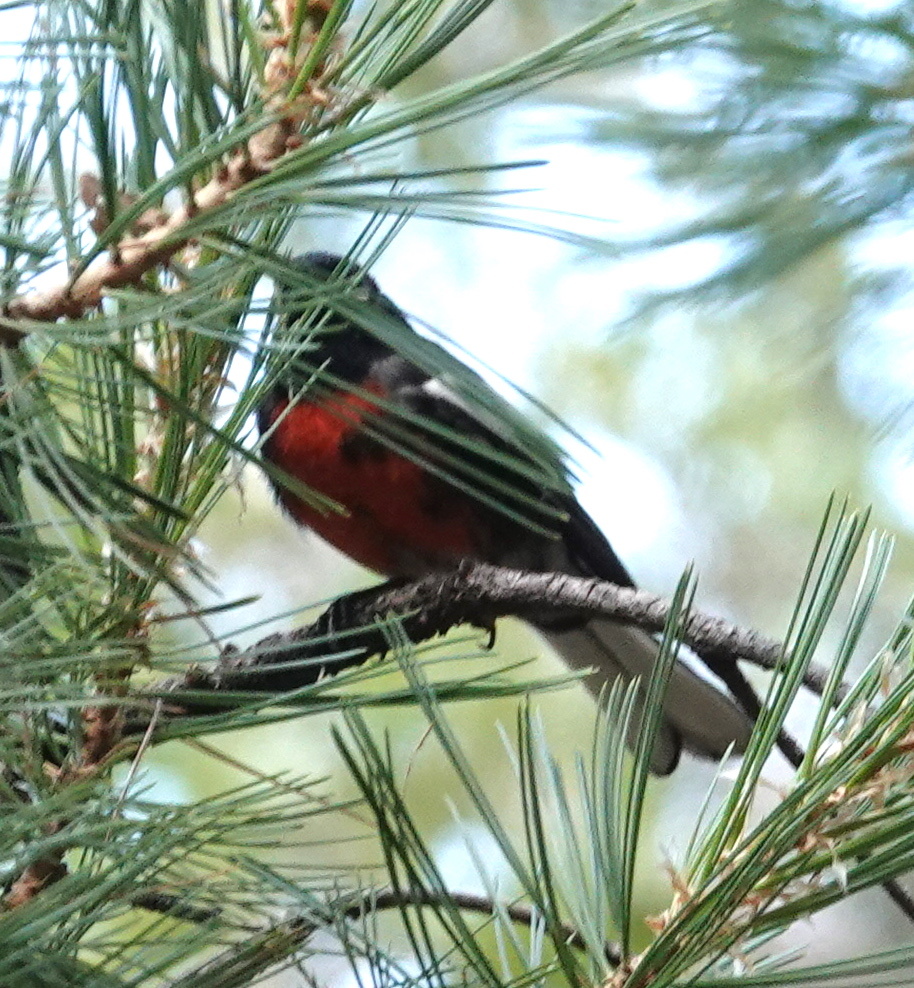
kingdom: Animalia
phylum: Chordata
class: Aves
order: Passeriformes
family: Parulidae
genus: Myioborus
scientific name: Myioborus pictus
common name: Painted whitestart
